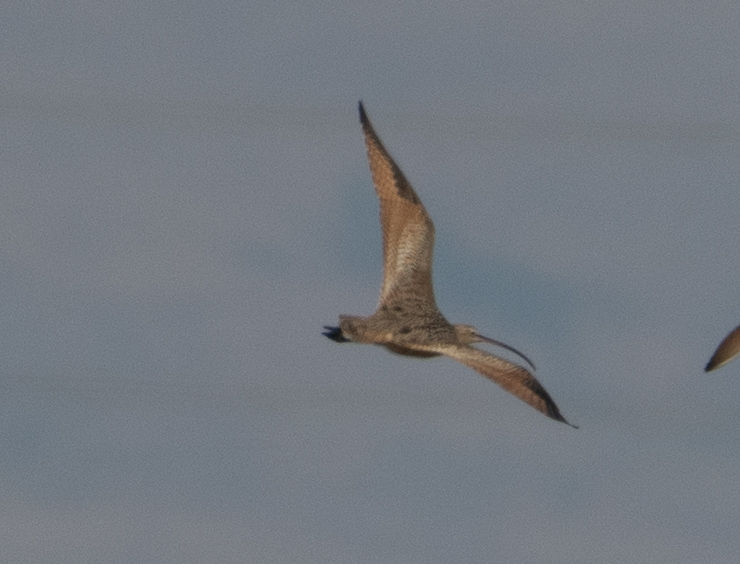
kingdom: Animalia
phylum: Chordata
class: Aves
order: Charadriiformes
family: Scolopacidae
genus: Numenius
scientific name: Numenius americanus
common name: Long-billed curlew
